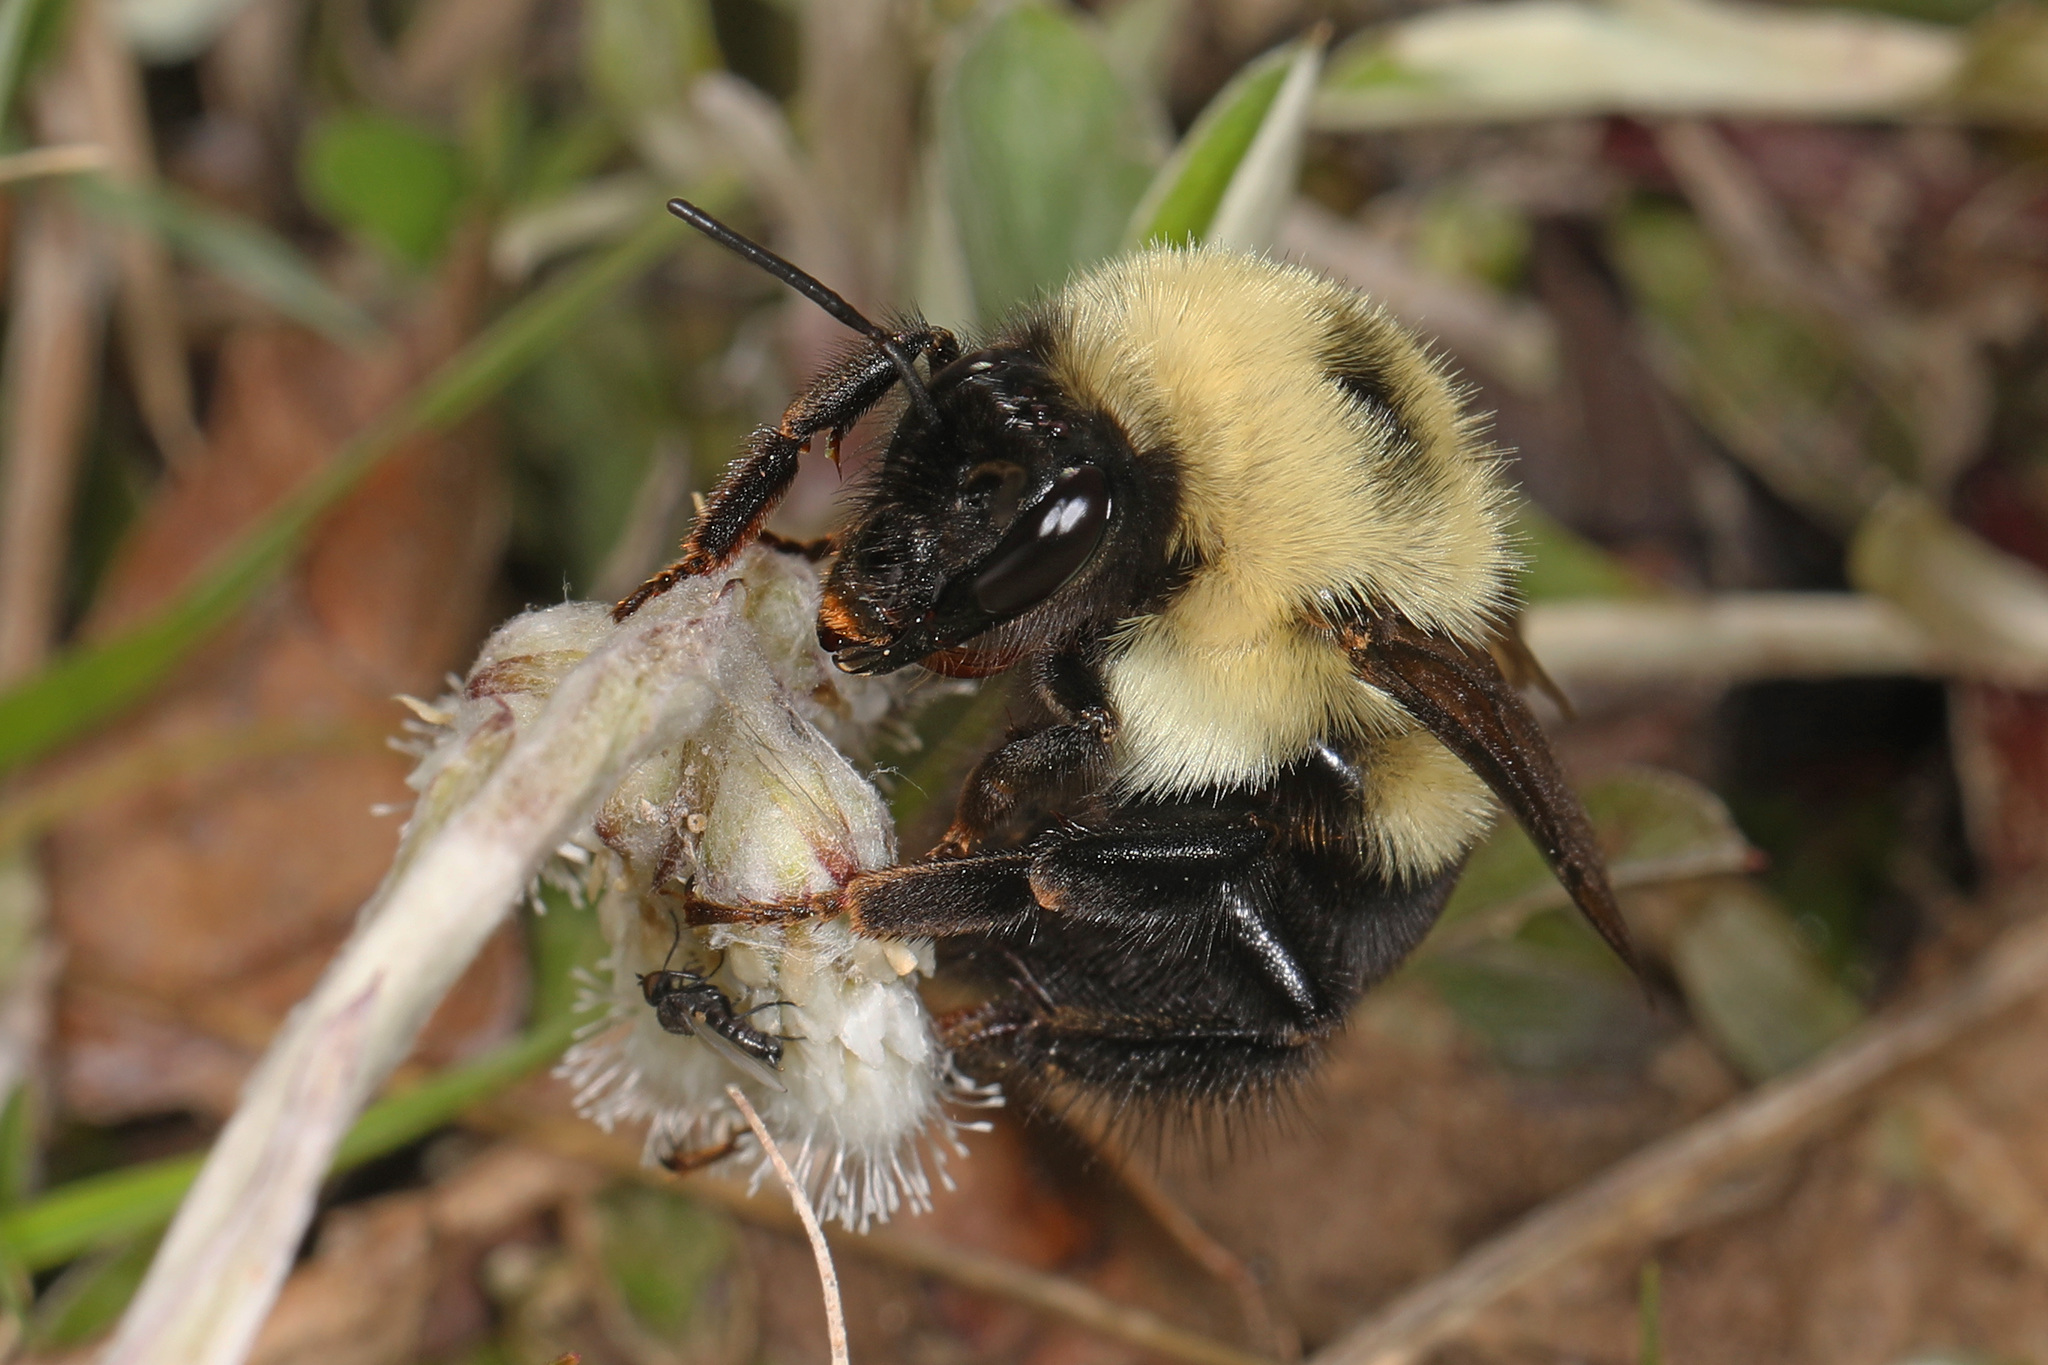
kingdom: Animalia
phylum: Arthropoda
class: Insecta
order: Hymenoptera
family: Apidae
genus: Bombus
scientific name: Bombus bimaculatus
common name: Two-spotted bumble bee
